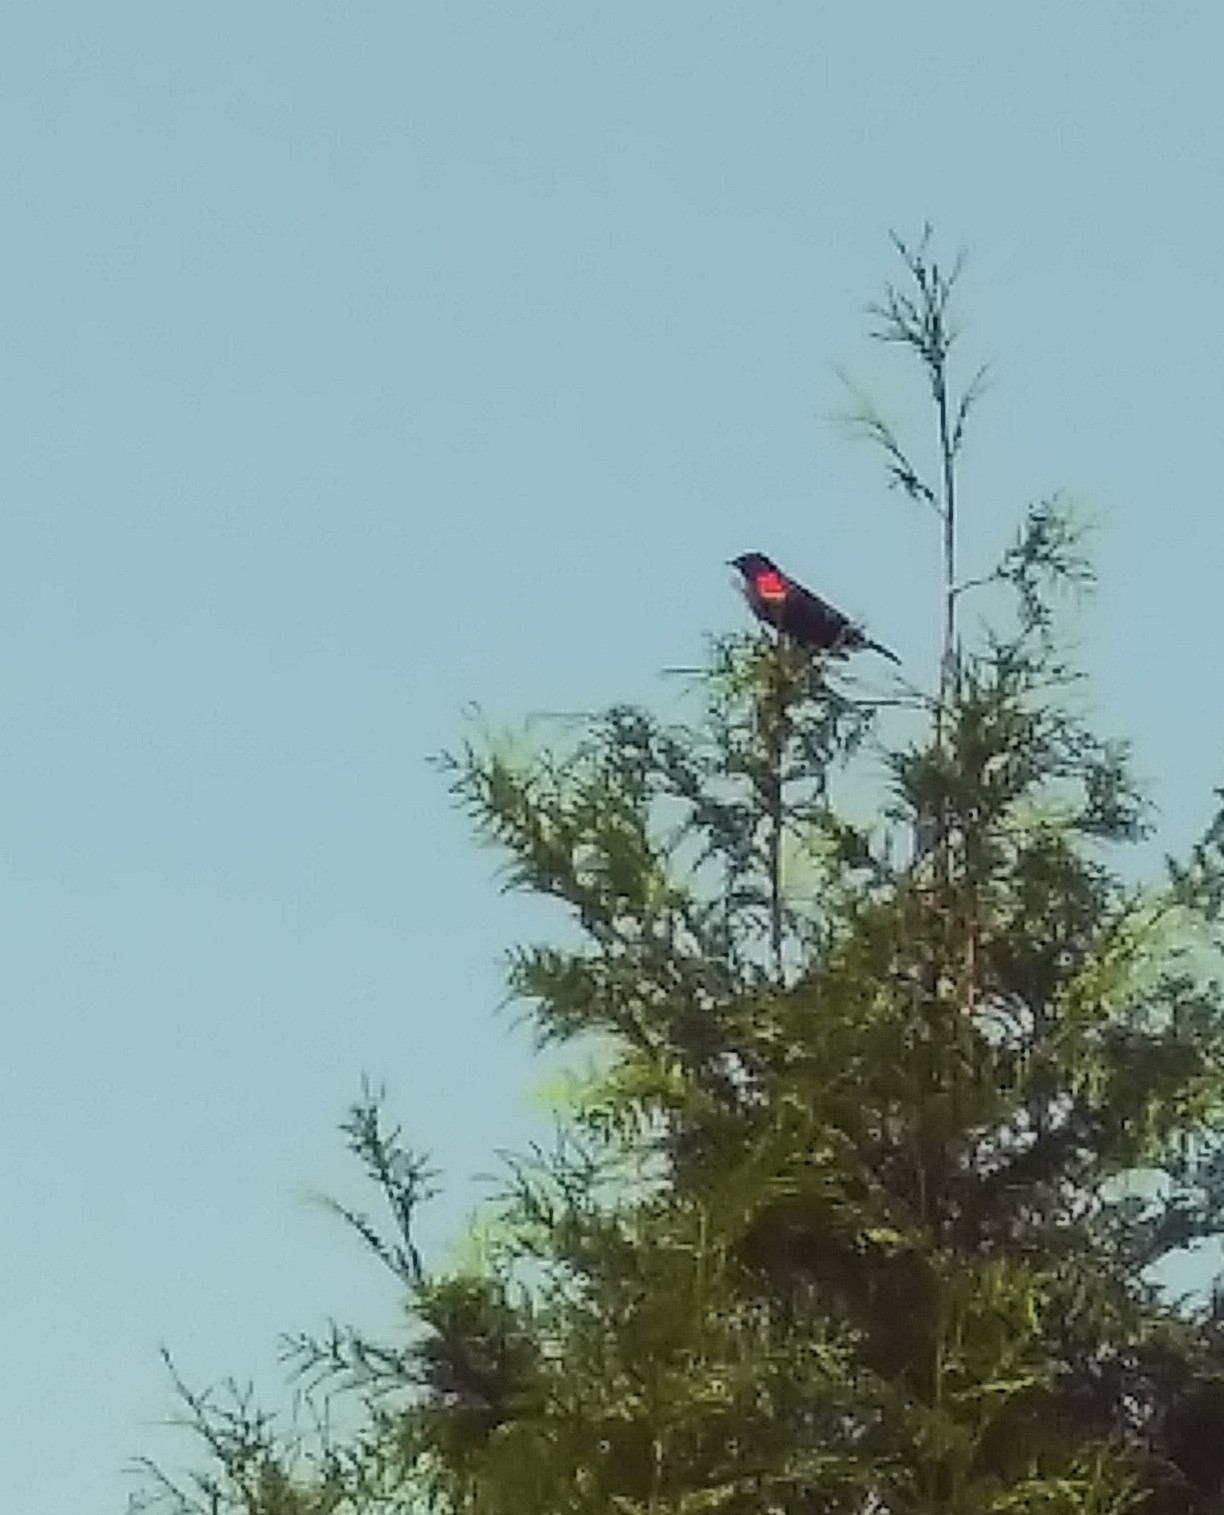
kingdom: Animalia
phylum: Chordata
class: Aves
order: Passeriformes
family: Icteridae
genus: Agelaius
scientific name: Agelaius phoeniceus
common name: Red-winged blackbird
